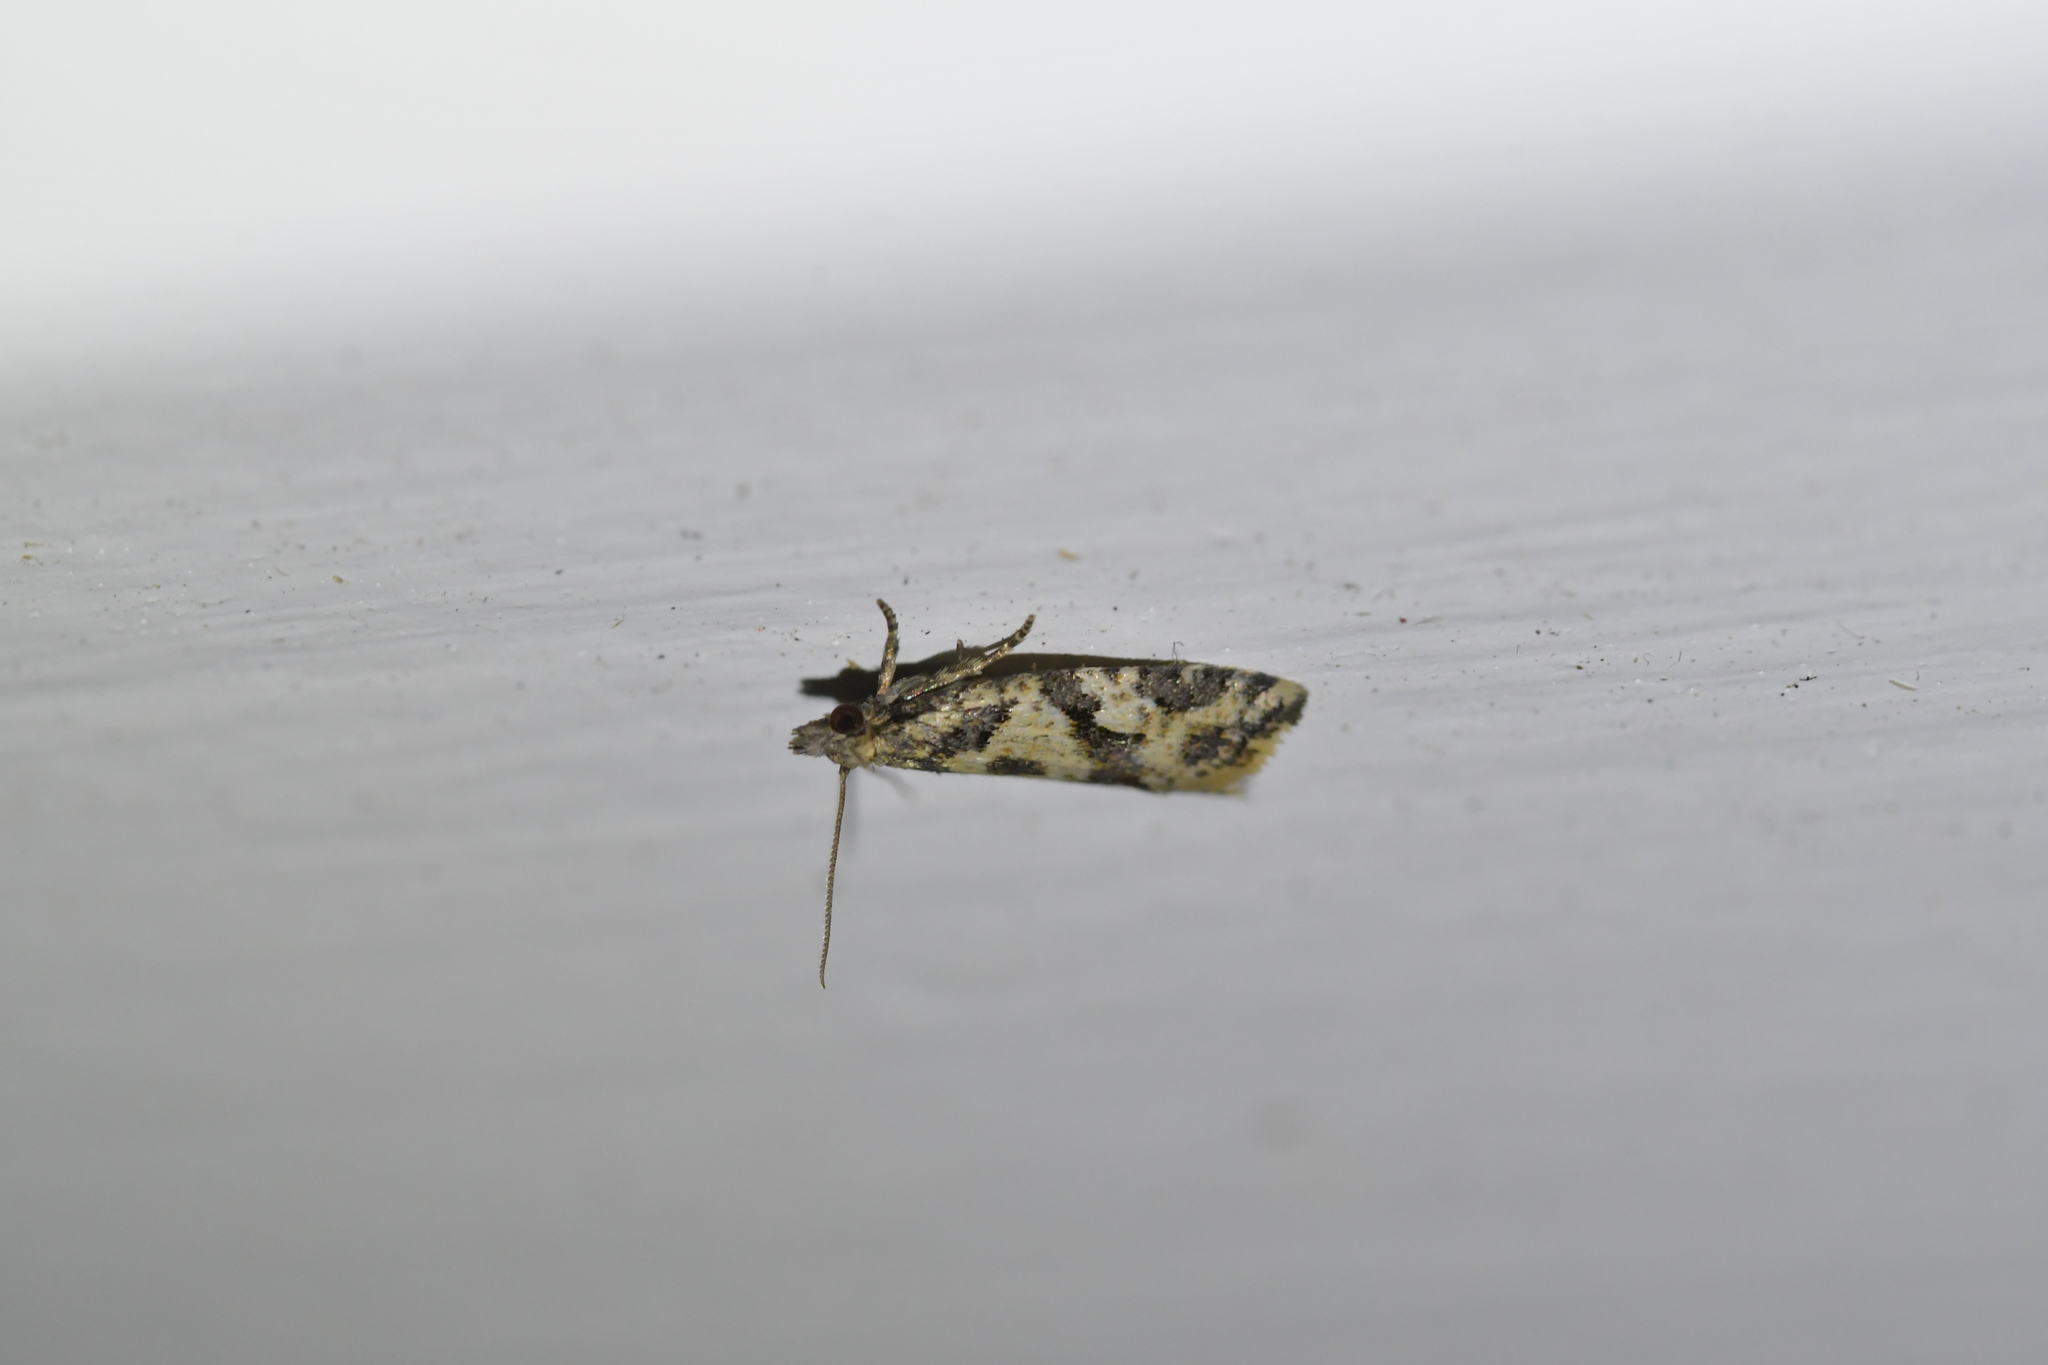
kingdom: Animalia
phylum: Arthropoda
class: Insecta
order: Lepidoptera
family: Tortricidae
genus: Capua
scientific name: Capua semiferana
